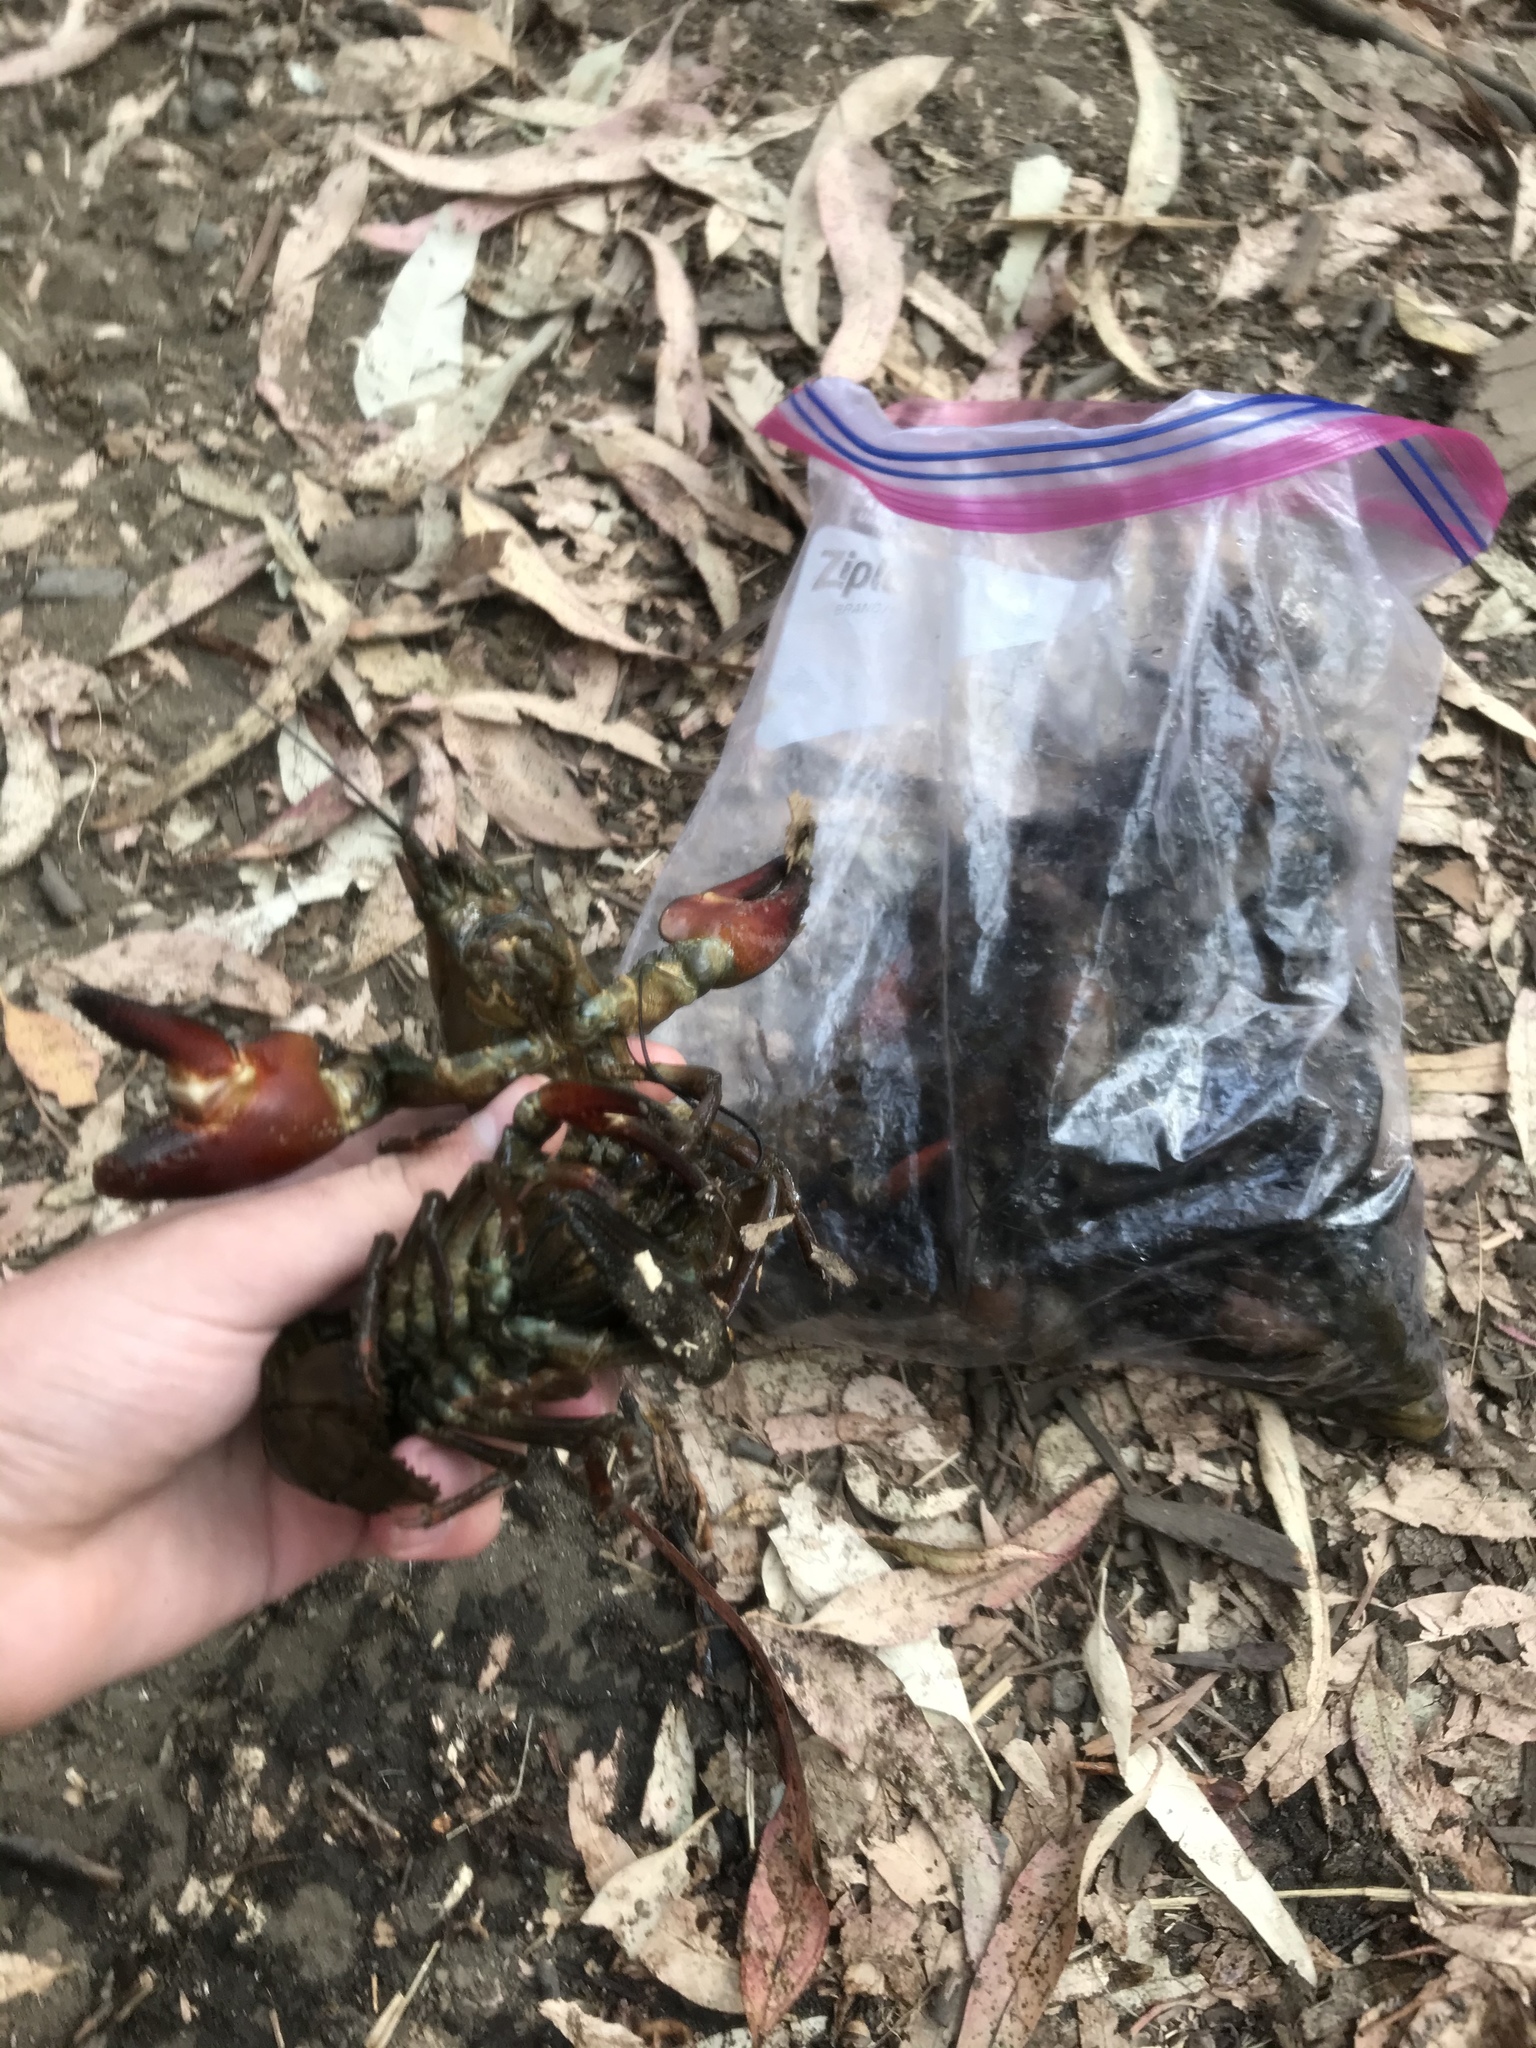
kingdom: Animalia
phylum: Arthropoda
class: Malacostraca
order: Decapoda
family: Astacidae
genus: Pacifastacus
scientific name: Pacifastacus leniusculus
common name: Signal crayfish
